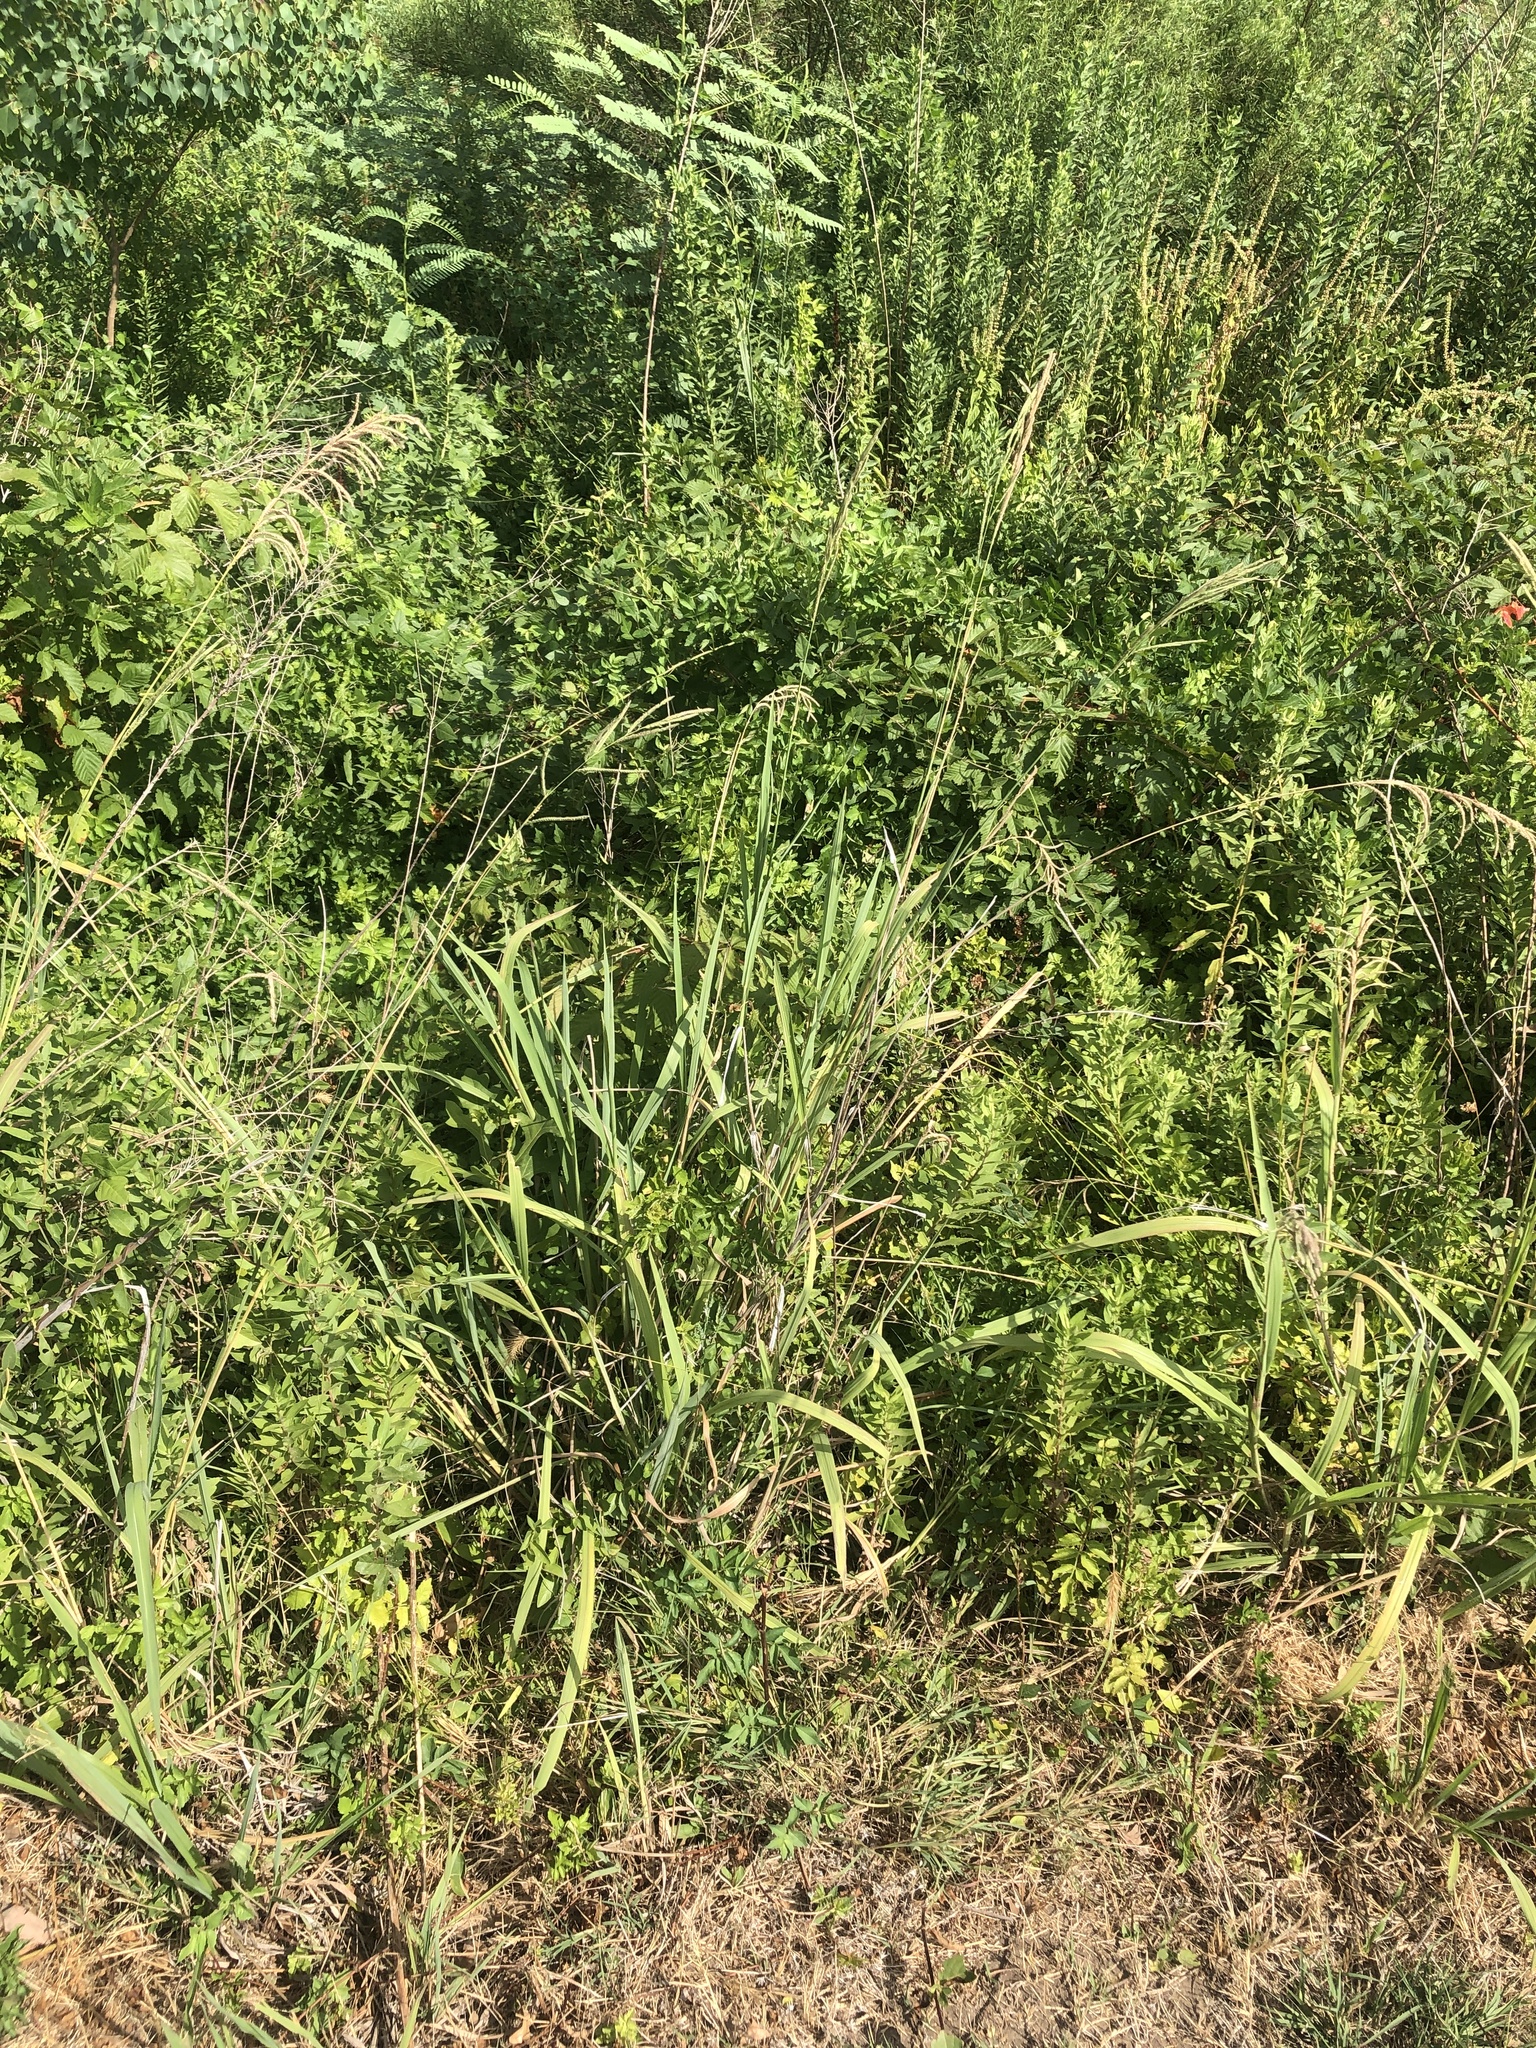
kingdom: Plantae
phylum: Tracheophyta
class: Liliopsida
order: Poales
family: Poaceae
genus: Paspalum
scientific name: Paspalum urvillei
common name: Vasey's grass
